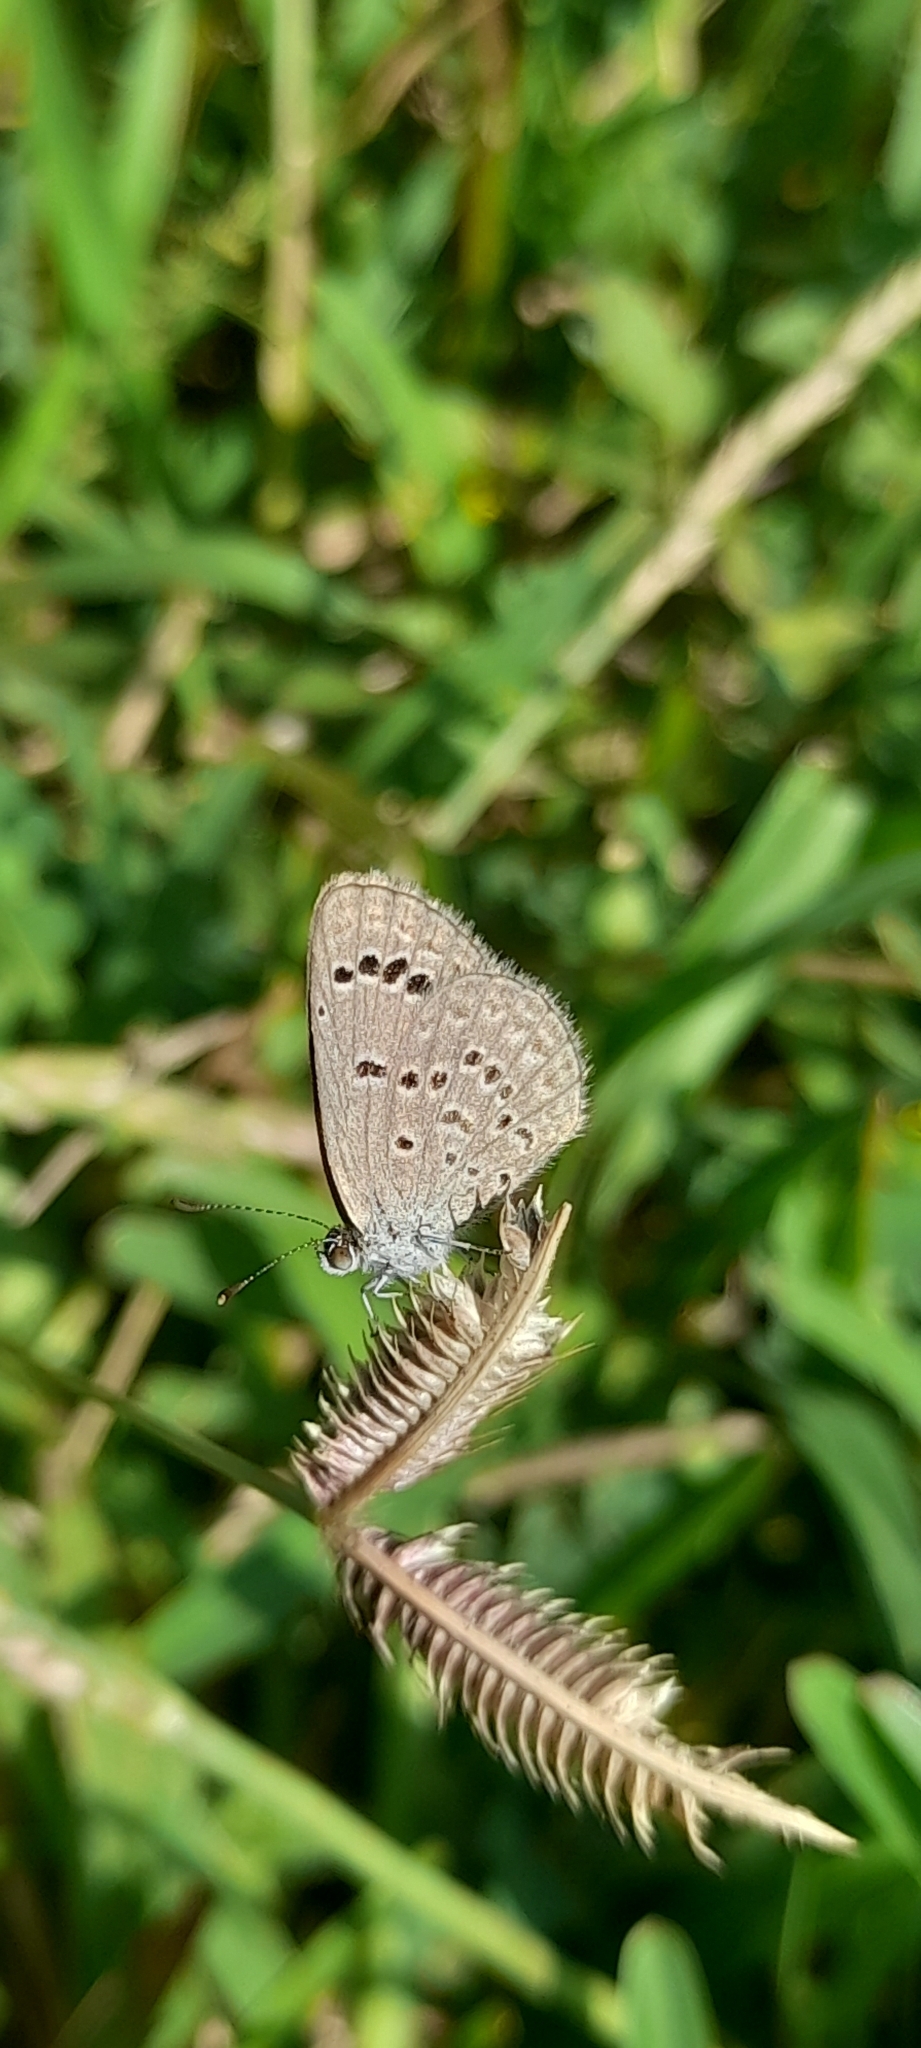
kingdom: Animalia
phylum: Arthropoda
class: Insecta
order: Lepidoptera
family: Lycaenidae
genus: Zizina
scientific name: Zizina otis
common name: Lesser grass blue
